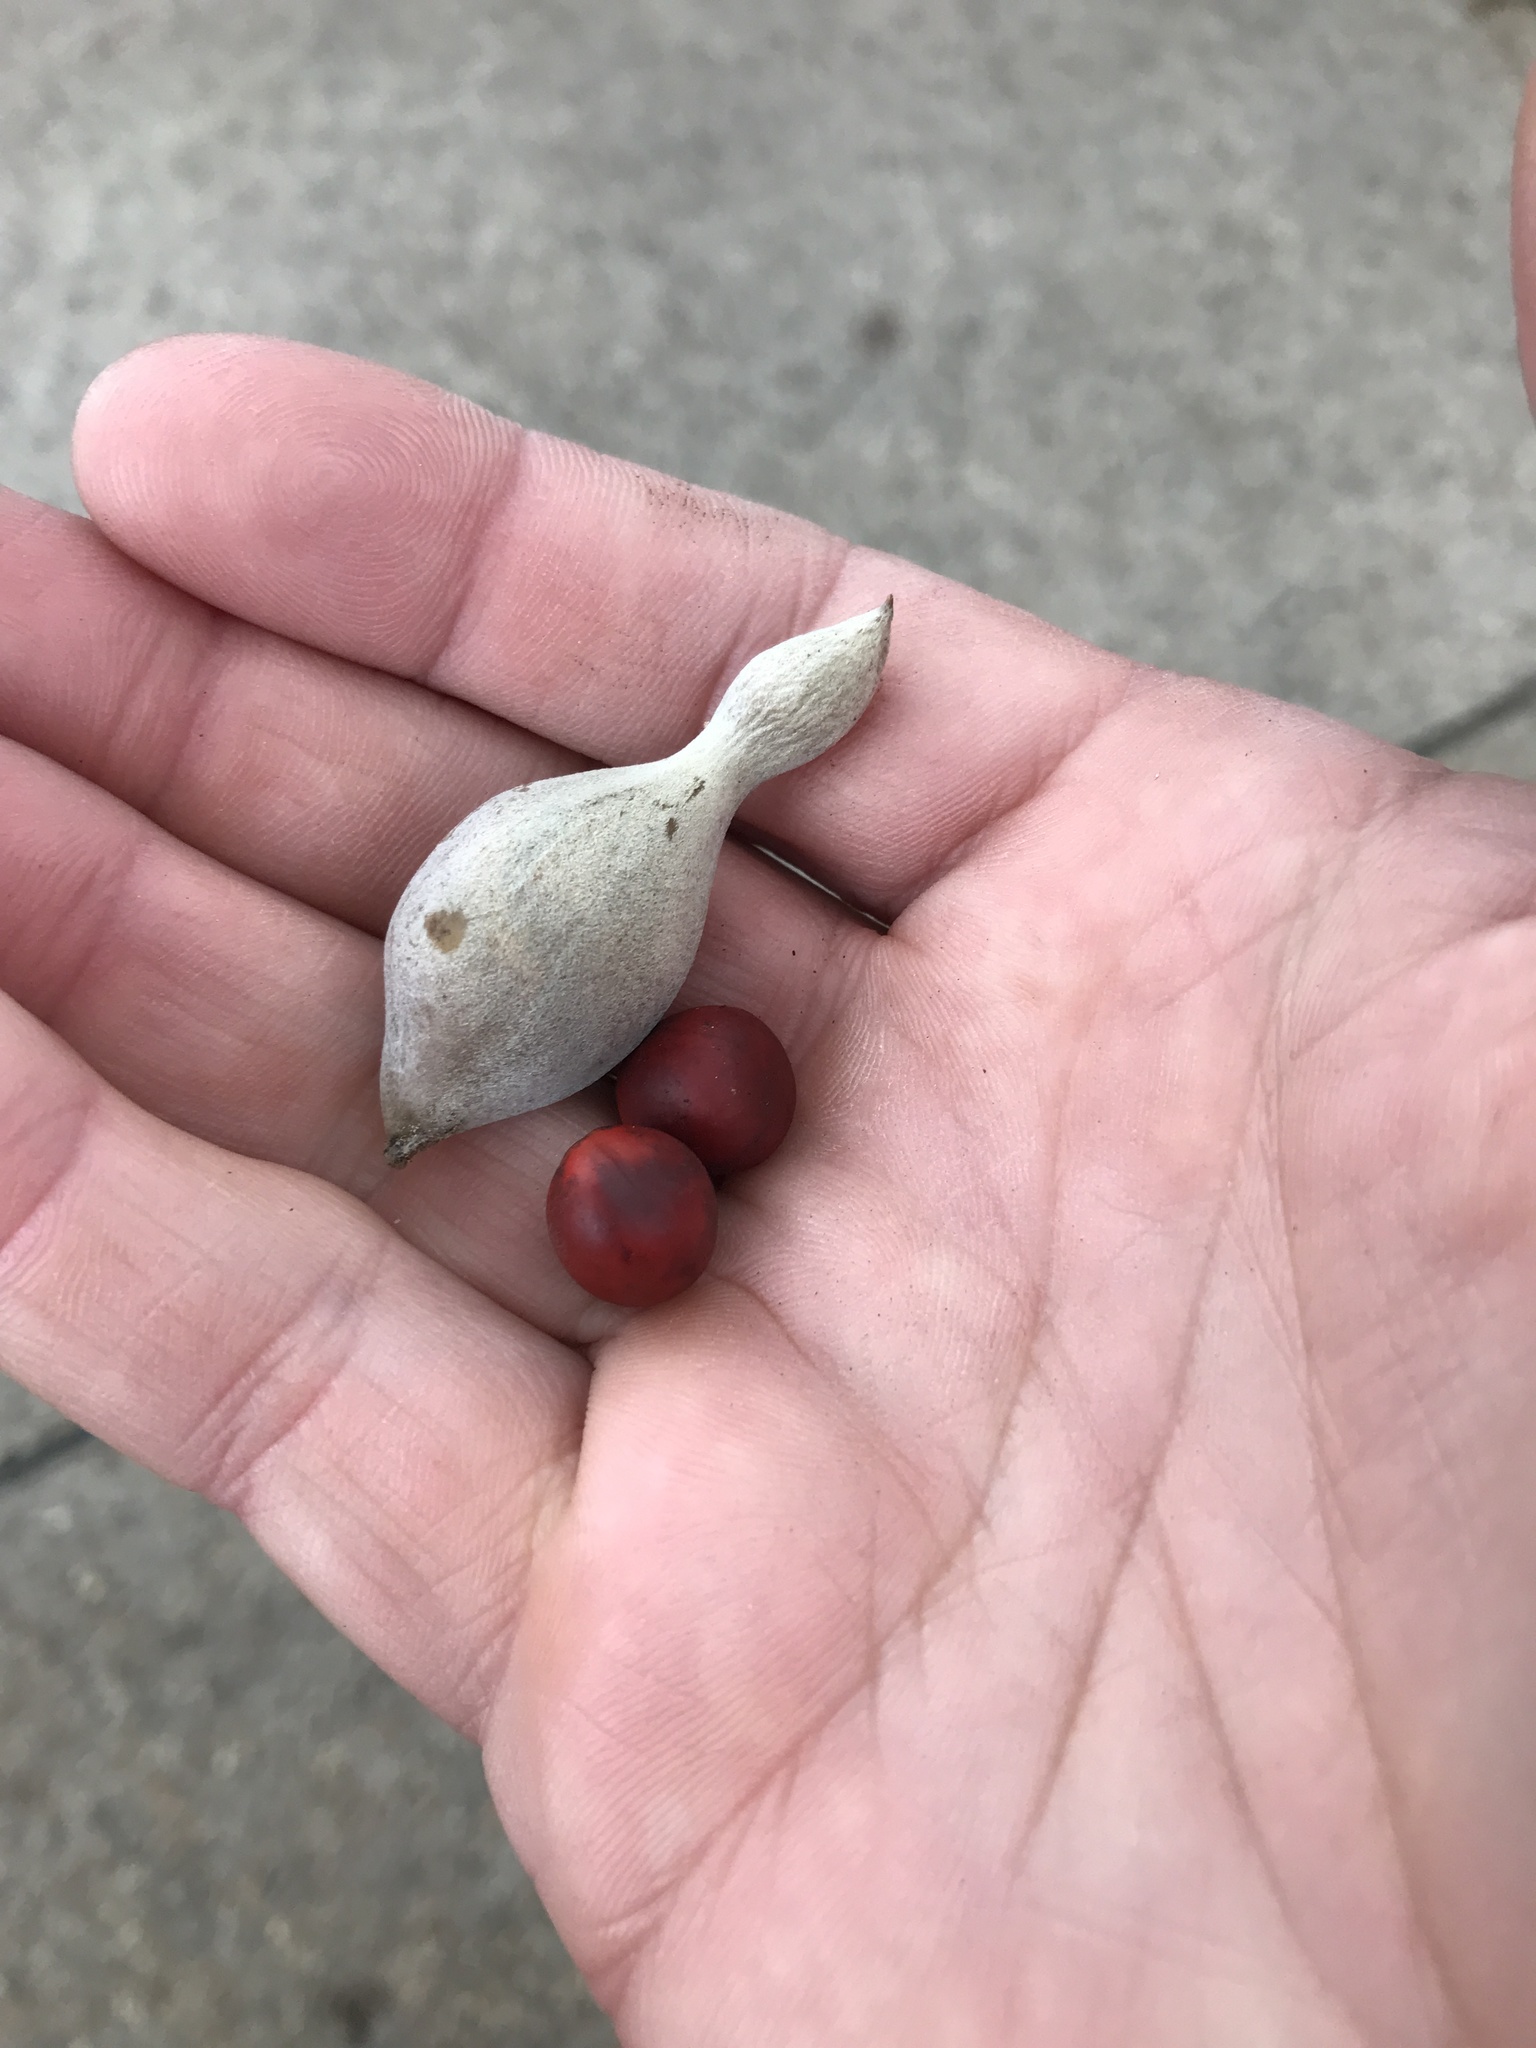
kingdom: Plantae
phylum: Tracheophyta
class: Magnoliopsida
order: Fabales
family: Fabaceae
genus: Dermatophyllum
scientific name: Dermatophyllum secundiflorum
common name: Texas-mountain-laurel
